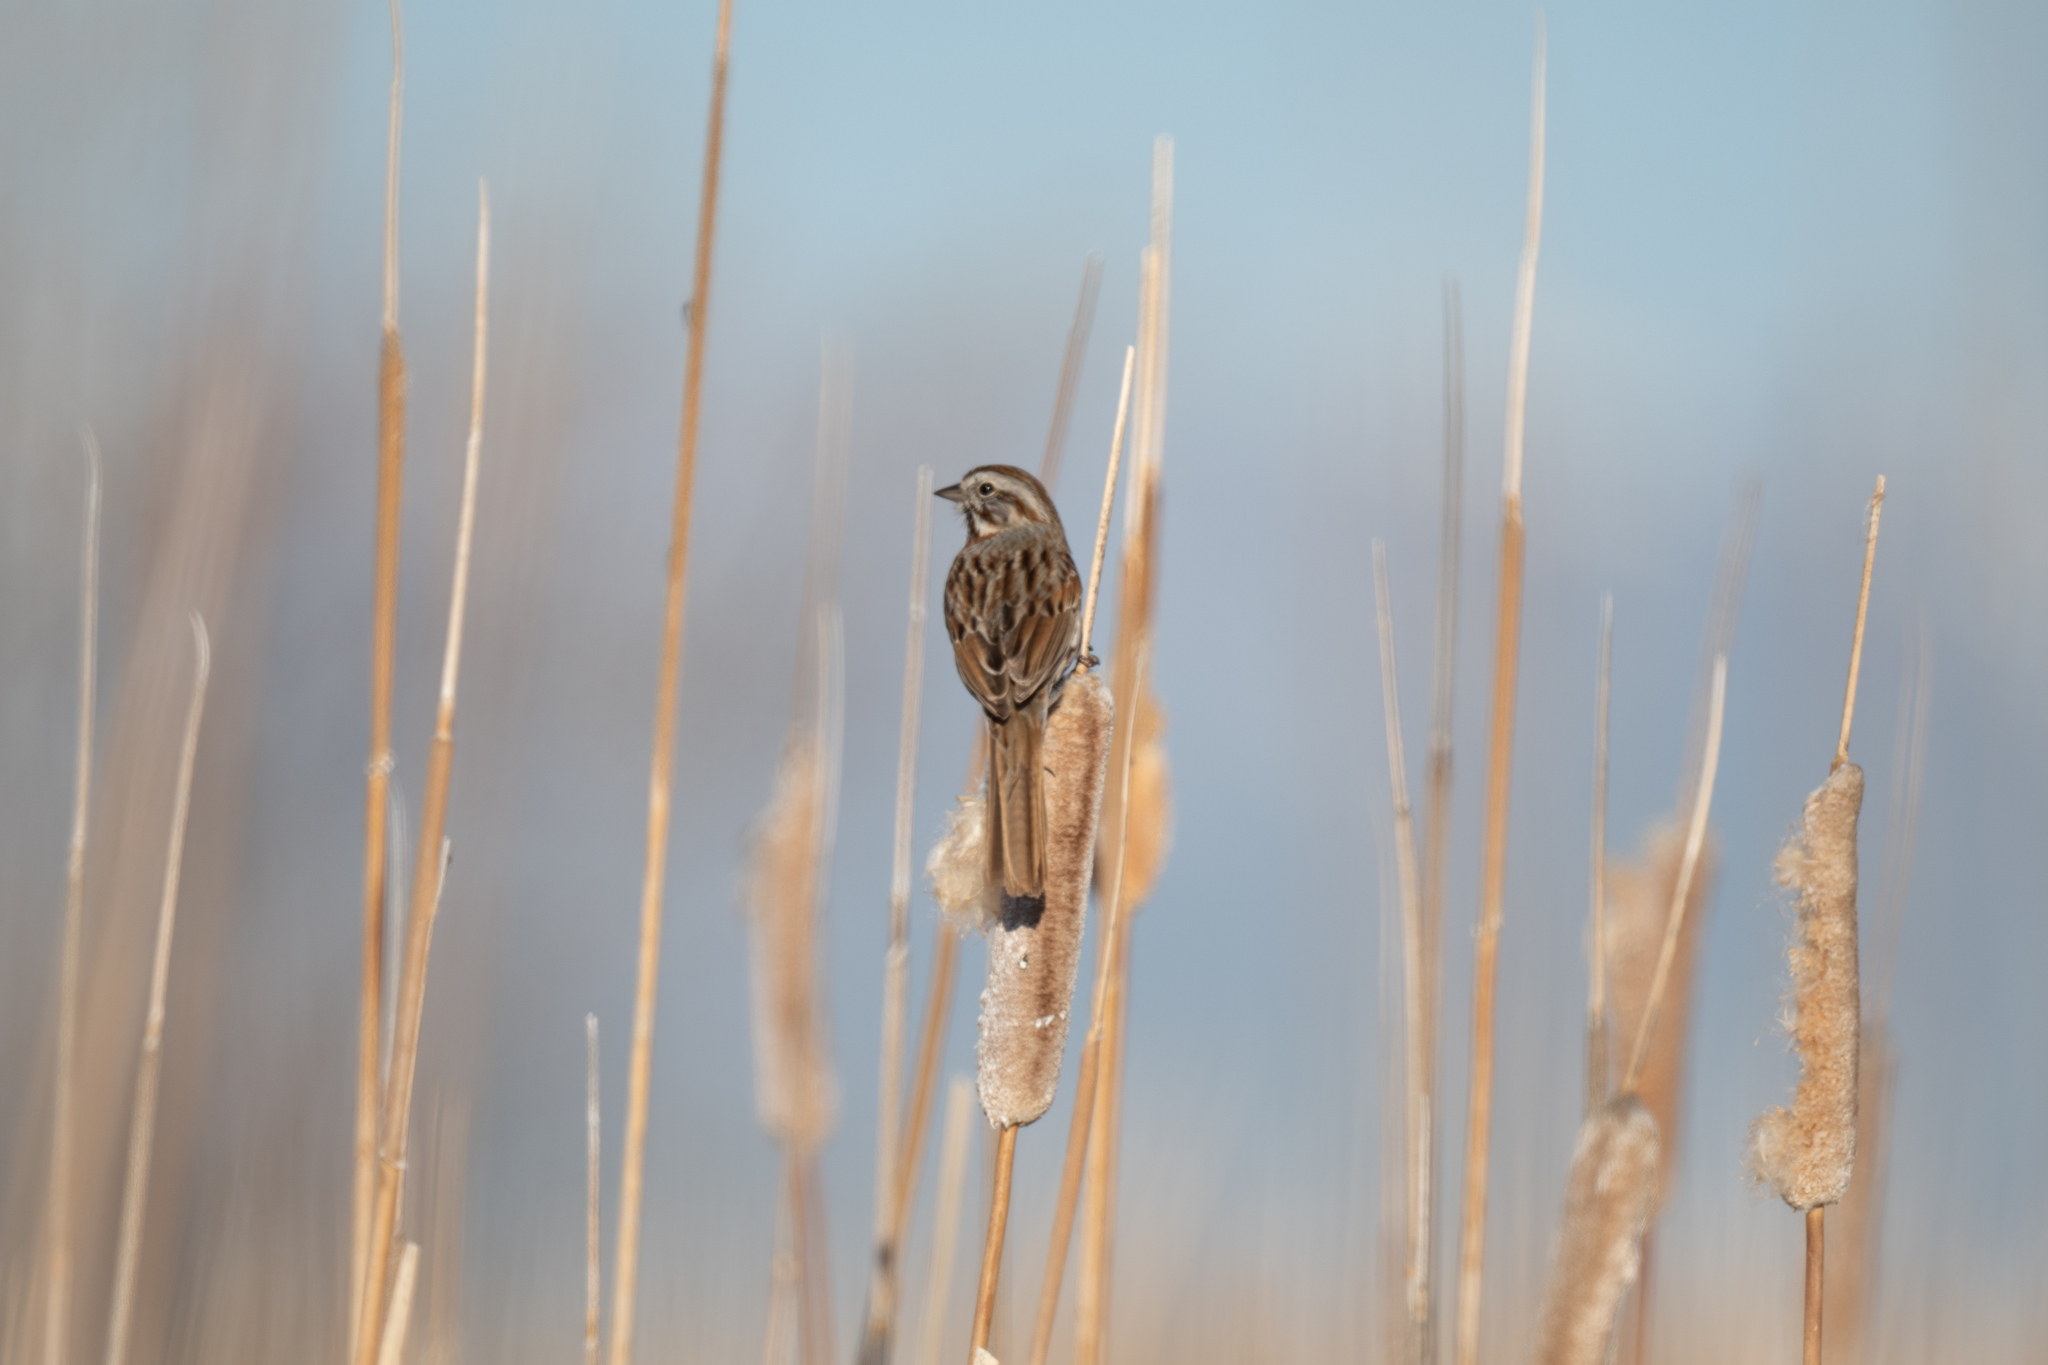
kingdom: Animalia
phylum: Chordata
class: Aves
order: Passeriformes
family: Passerellidae
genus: Melospiza
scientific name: Melospiza melodia
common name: Song sparrow
